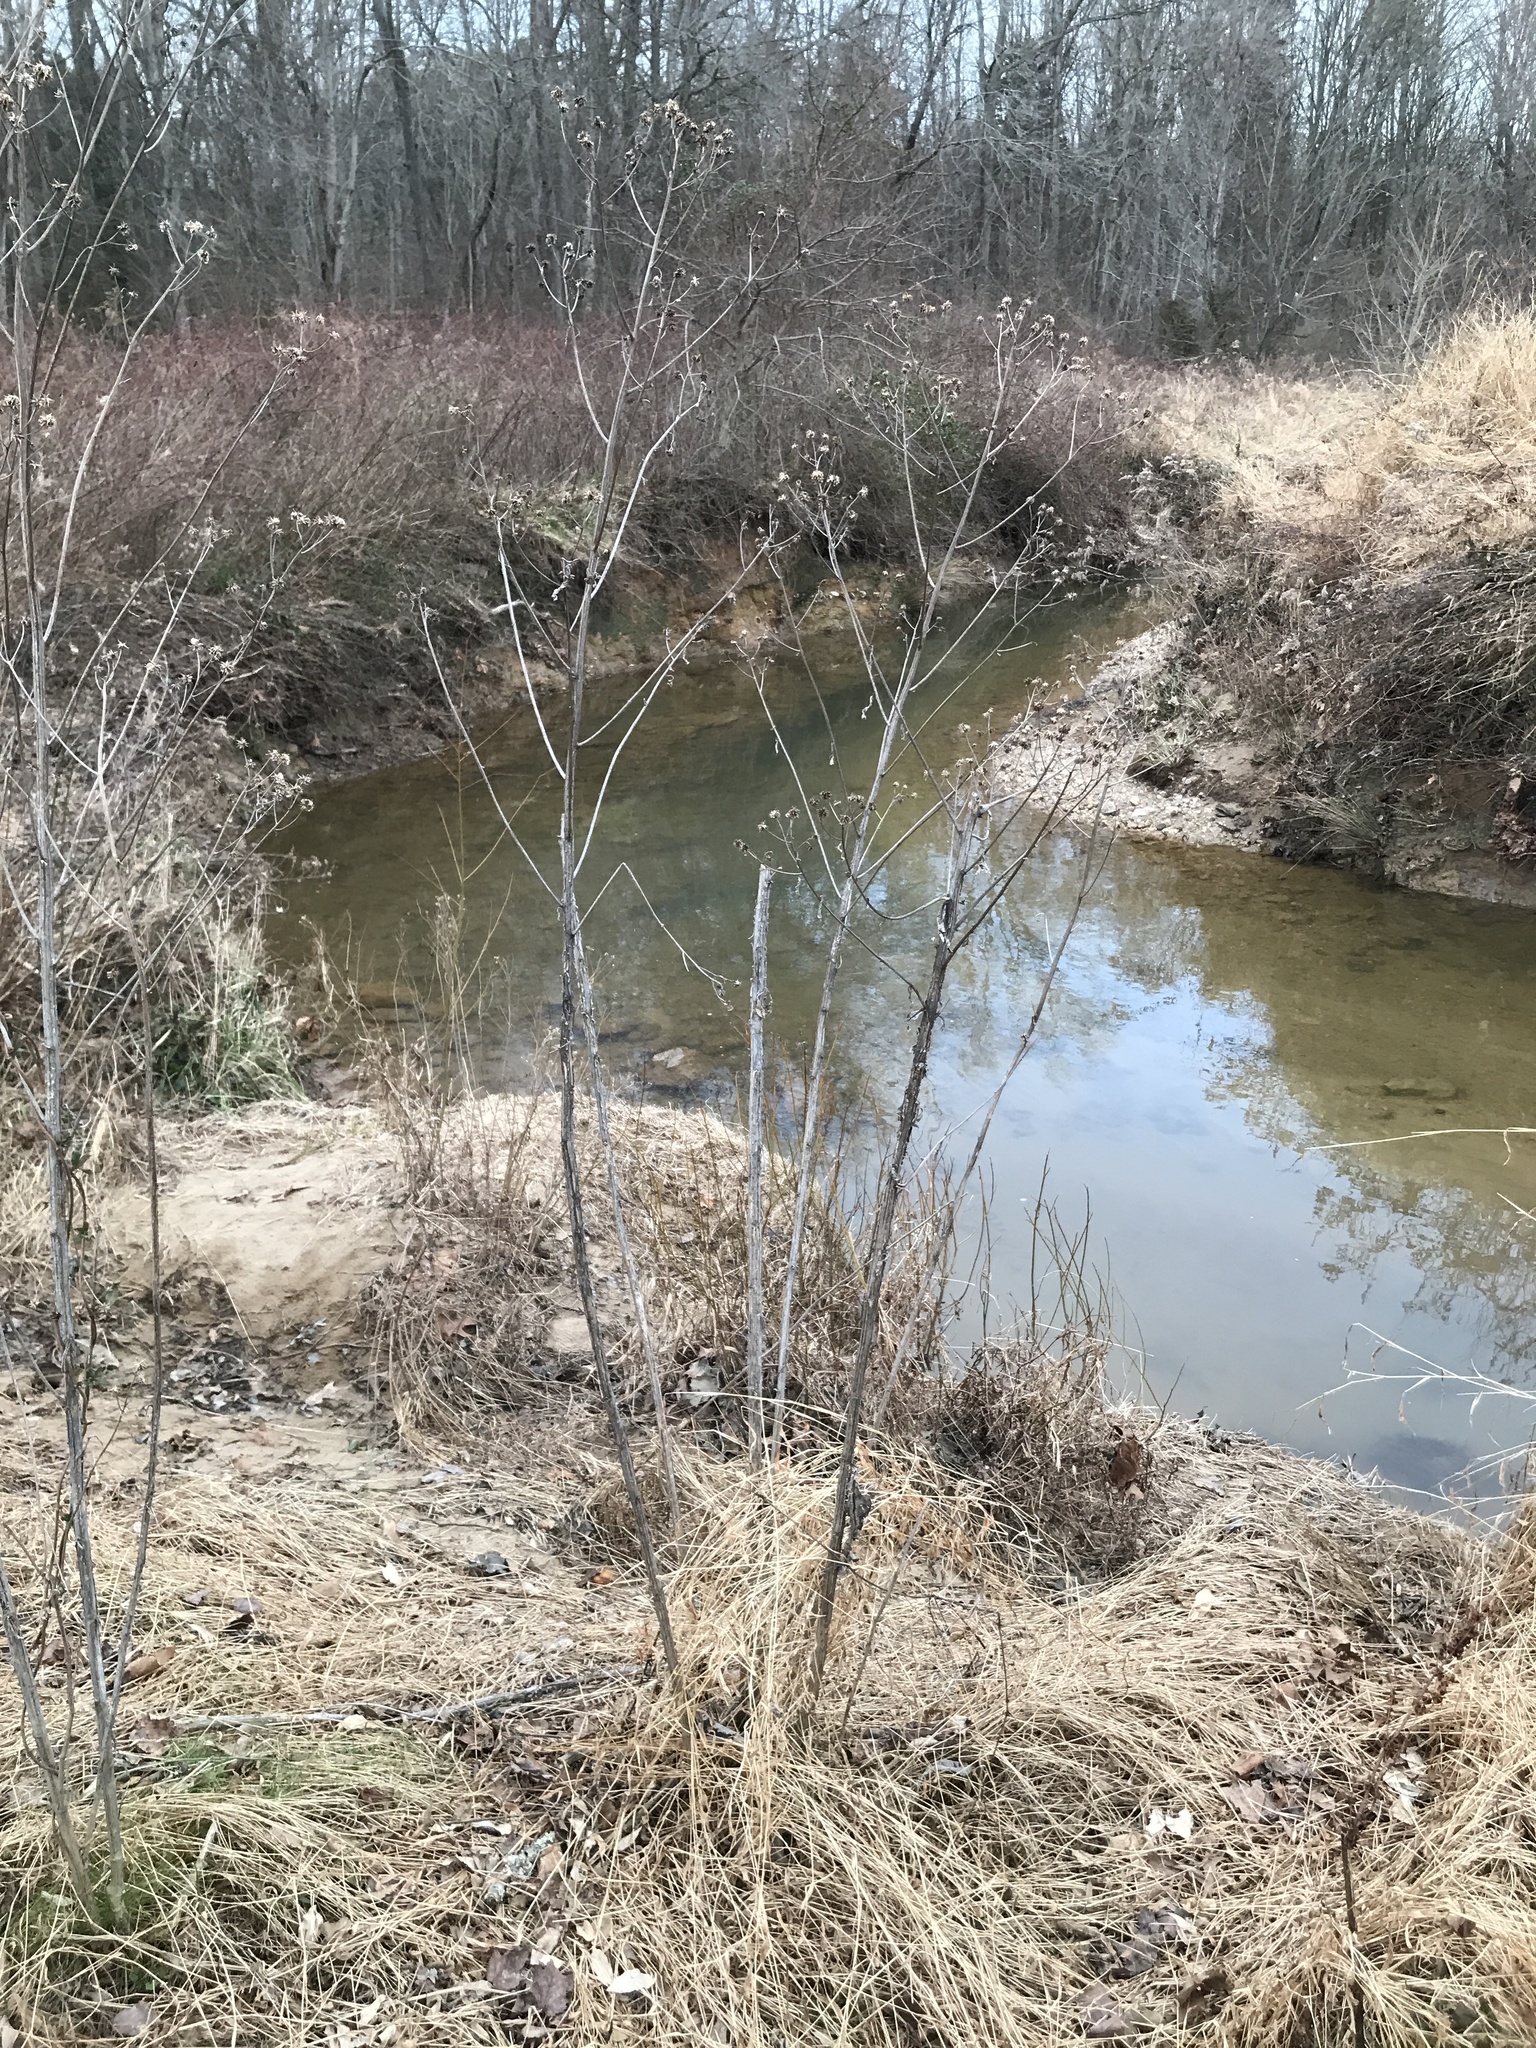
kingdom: Plantae
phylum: Tracheophyta
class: Magnoliopsida
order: Asterales
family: Asteraceae
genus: Verbesina
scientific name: Verbesina alternifolia
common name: Wingstem
